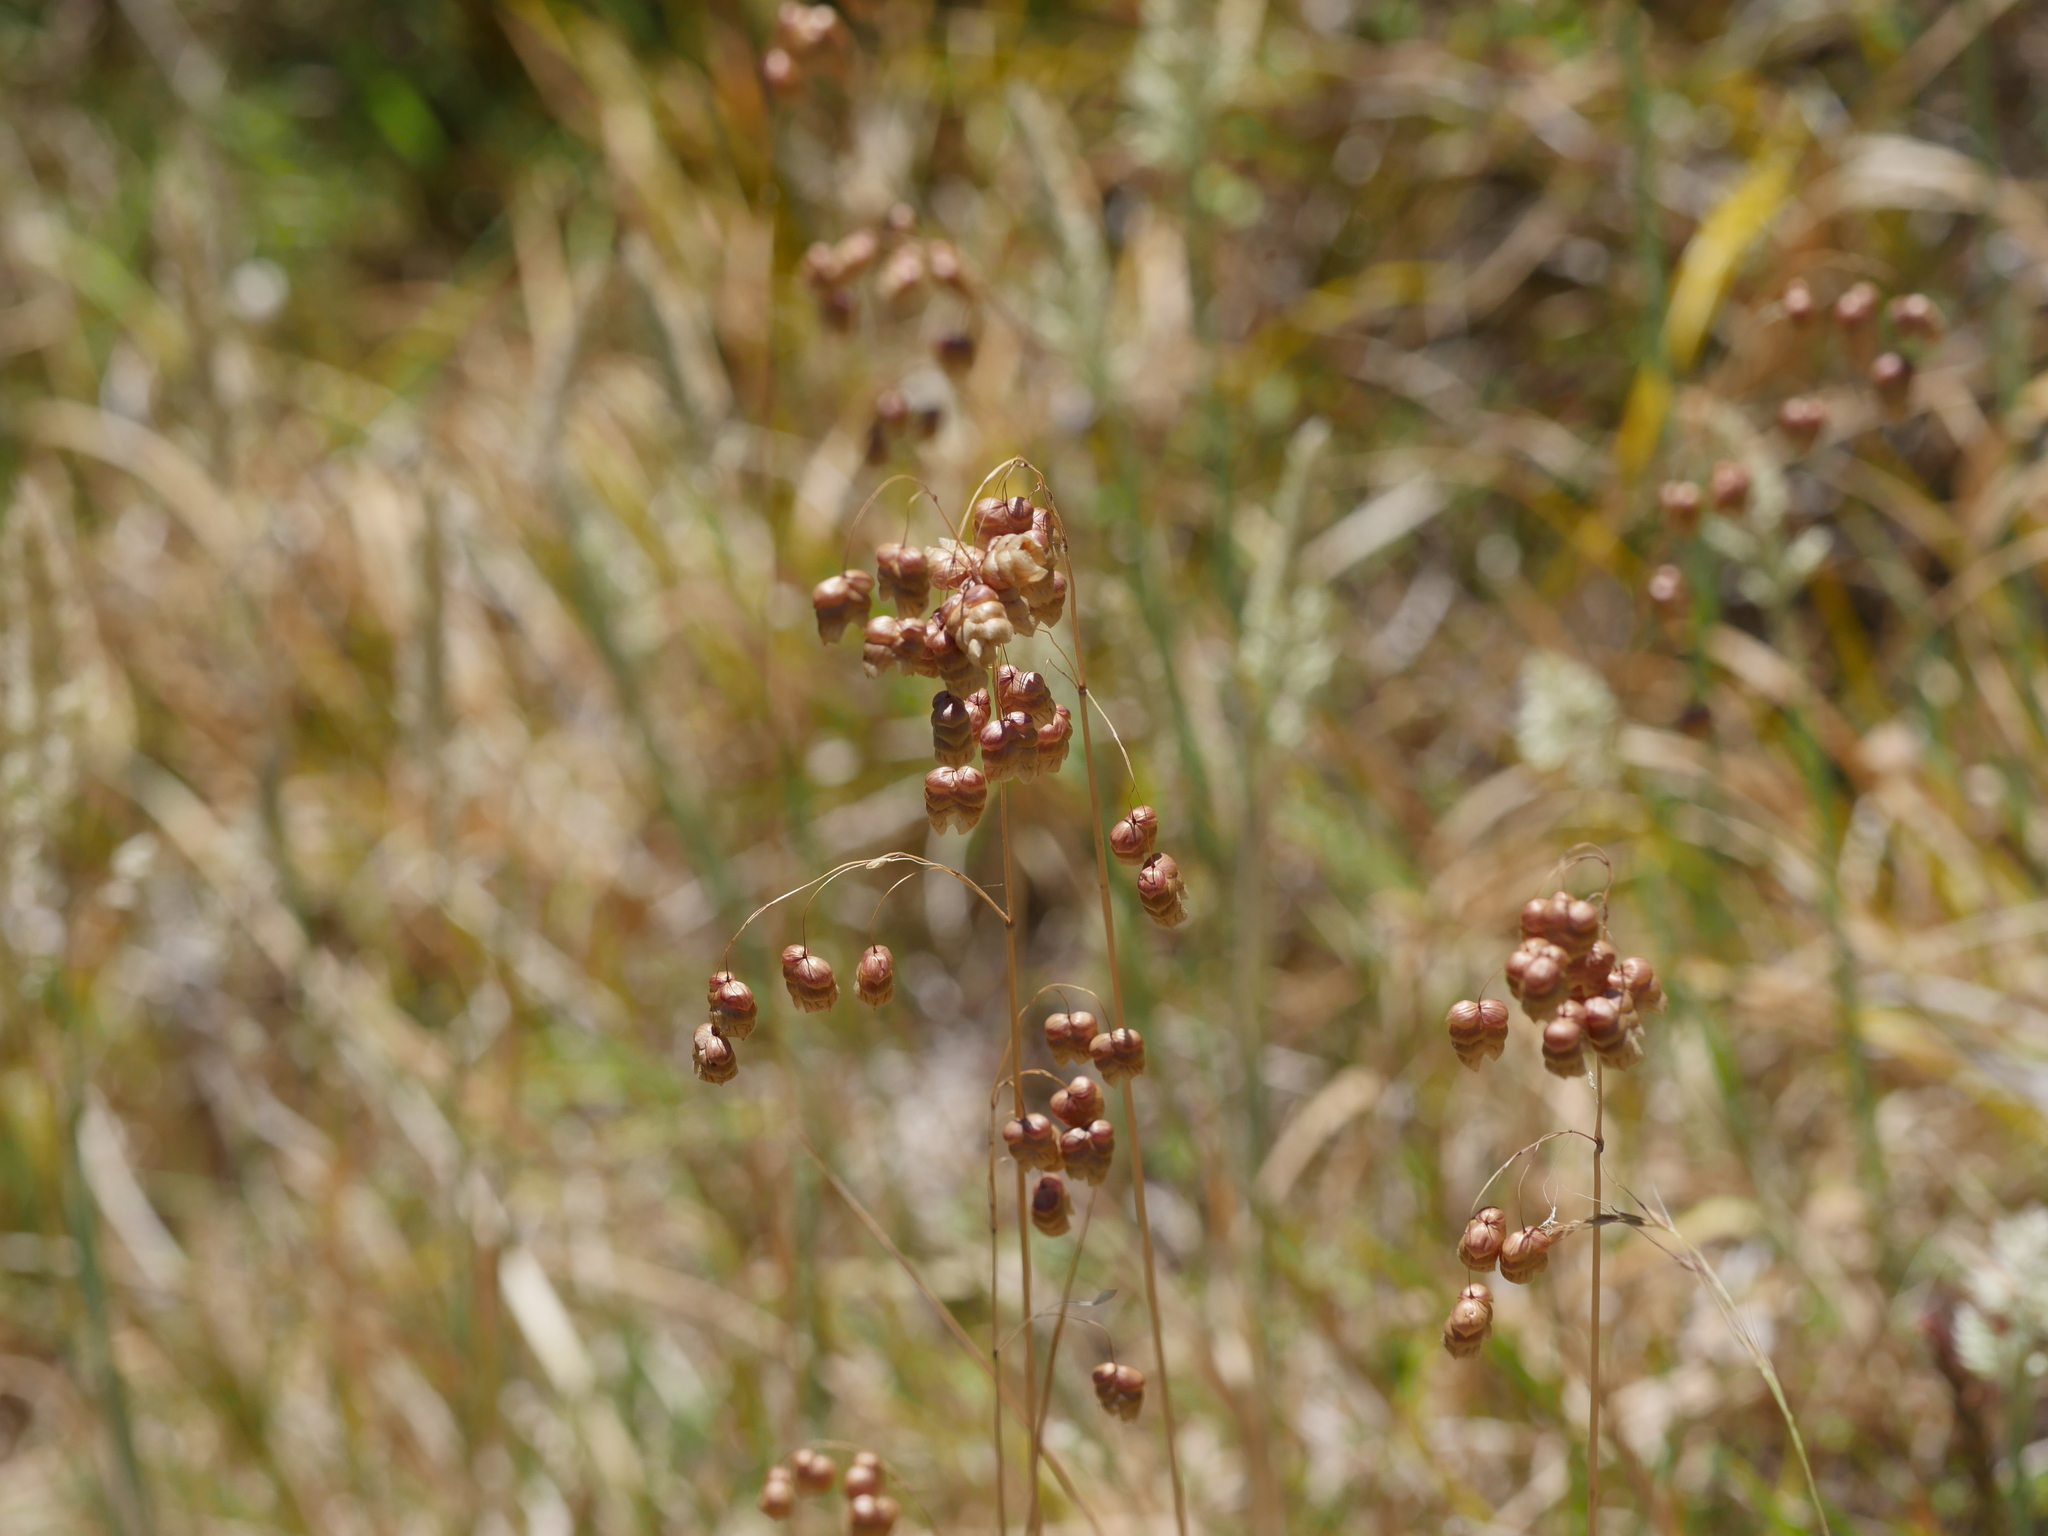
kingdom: Plantae
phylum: Tracheophyta
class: Liliopsida
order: Poales
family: Poaceae
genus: Briza
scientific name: Briza maxima
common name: Big quakinggrass
